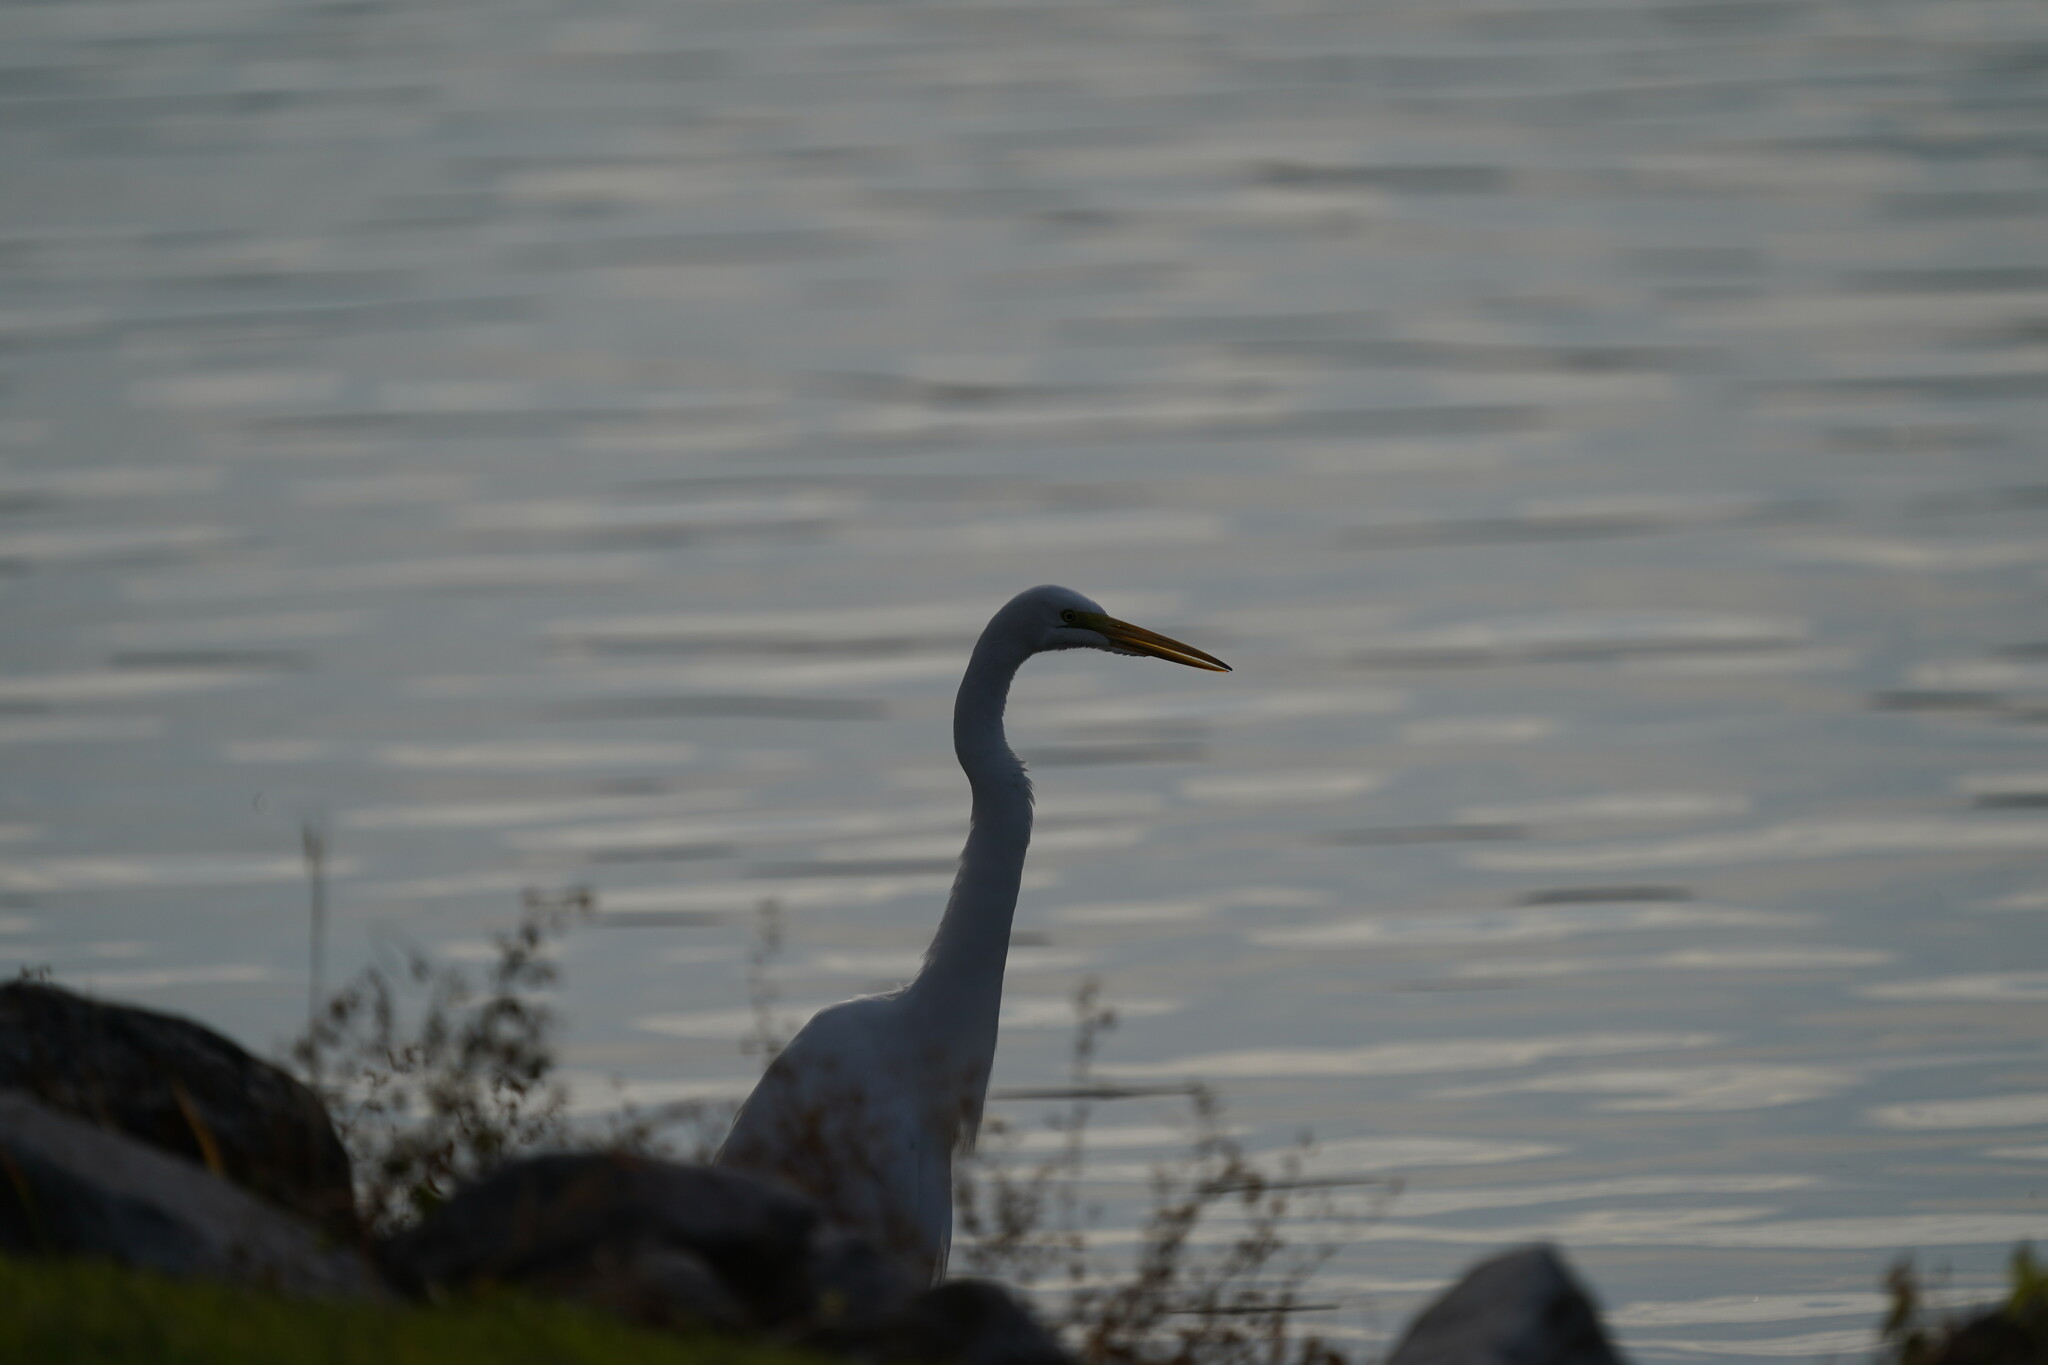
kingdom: Animalia
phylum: Chordata
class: Aves
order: Pelecaniformes
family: Ardeidae
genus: Ardea
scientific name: Ardea alba
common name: Great egret
